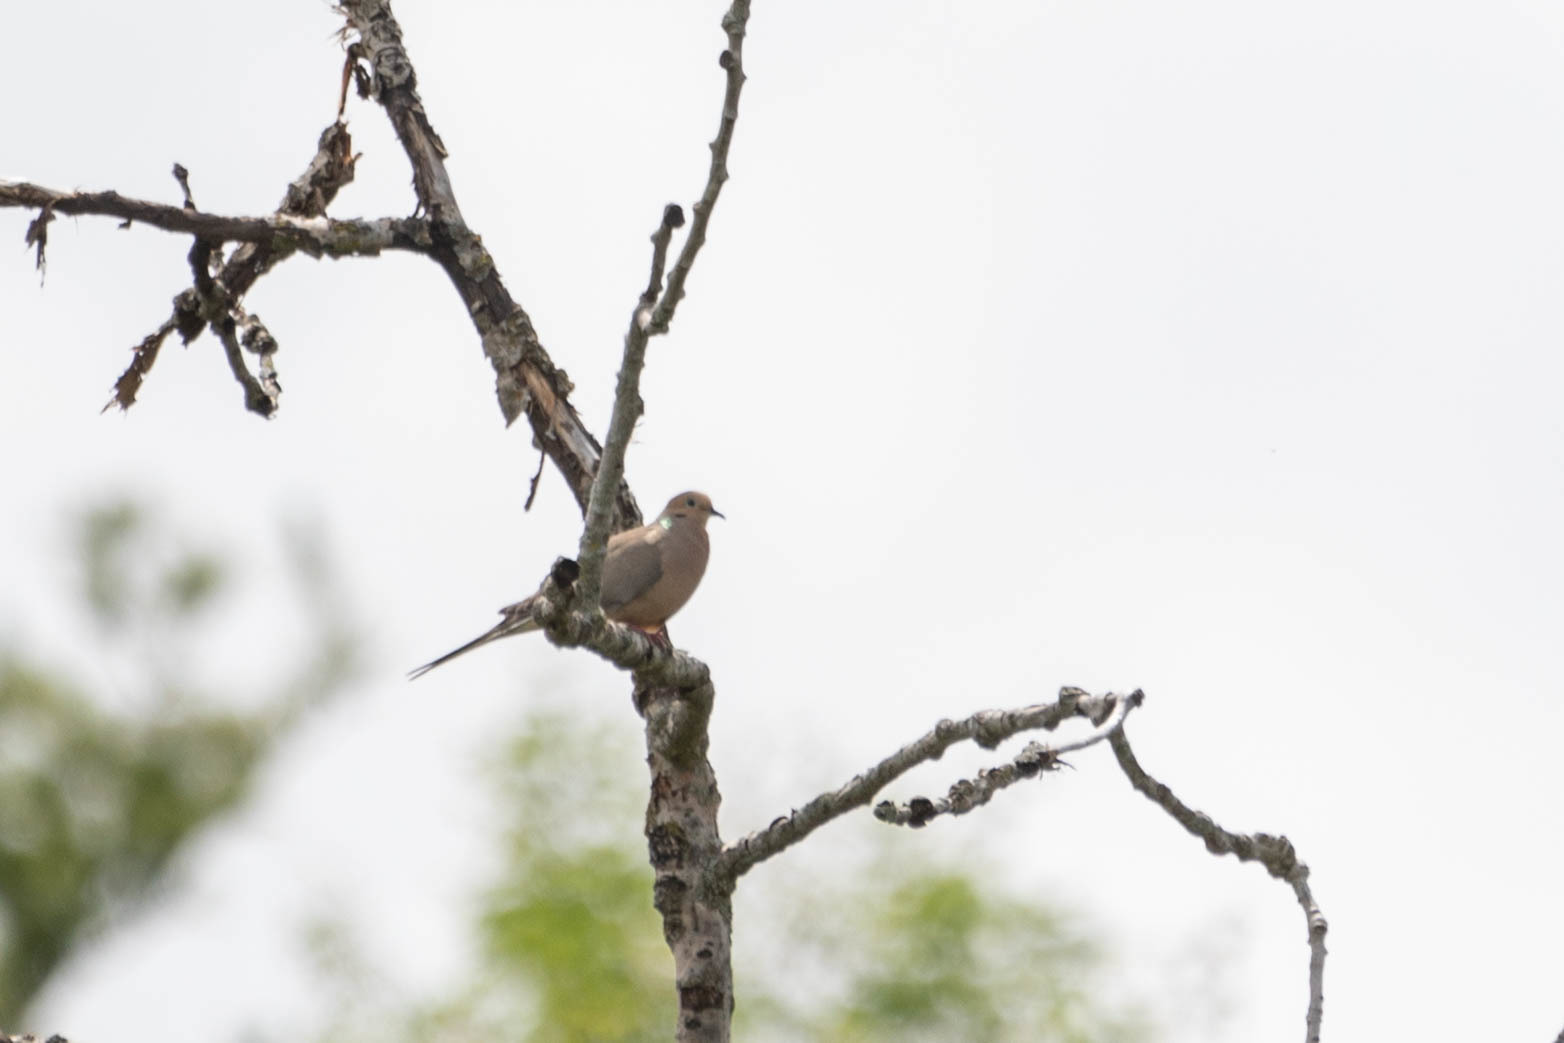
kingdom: Animalia
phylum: Chordata
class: Aves
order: Columbiformes
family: Columbidae
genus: Zenaida
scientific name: Zenaida macroura
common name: Mourning dove
